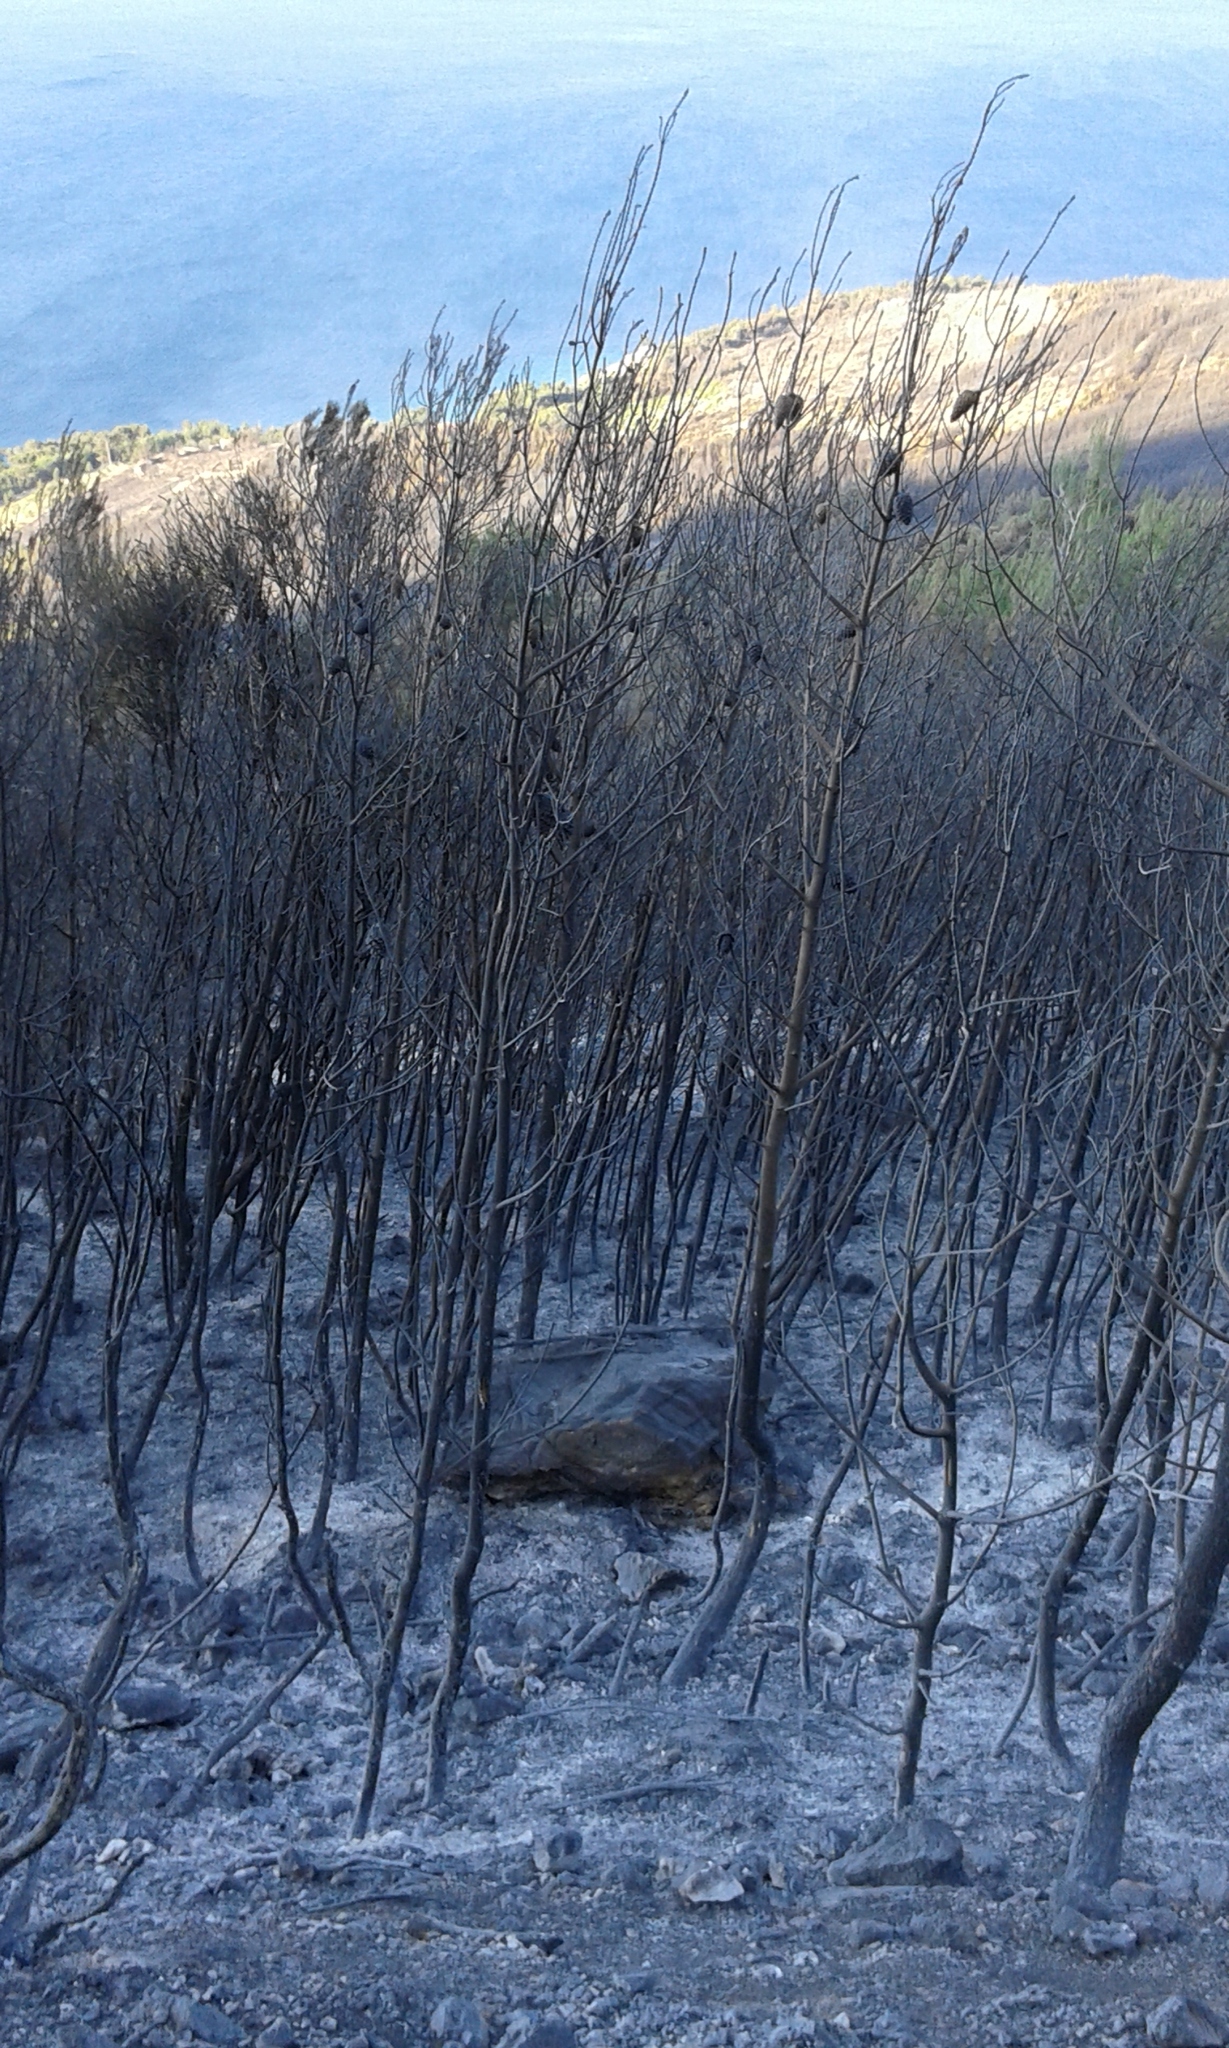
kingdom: Plantae
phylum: Tracheophyta
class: Pinopsida
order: Pinales
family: Pinaceae
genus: Pinus
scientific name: Pinus halepensis
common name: Aleppo pine
